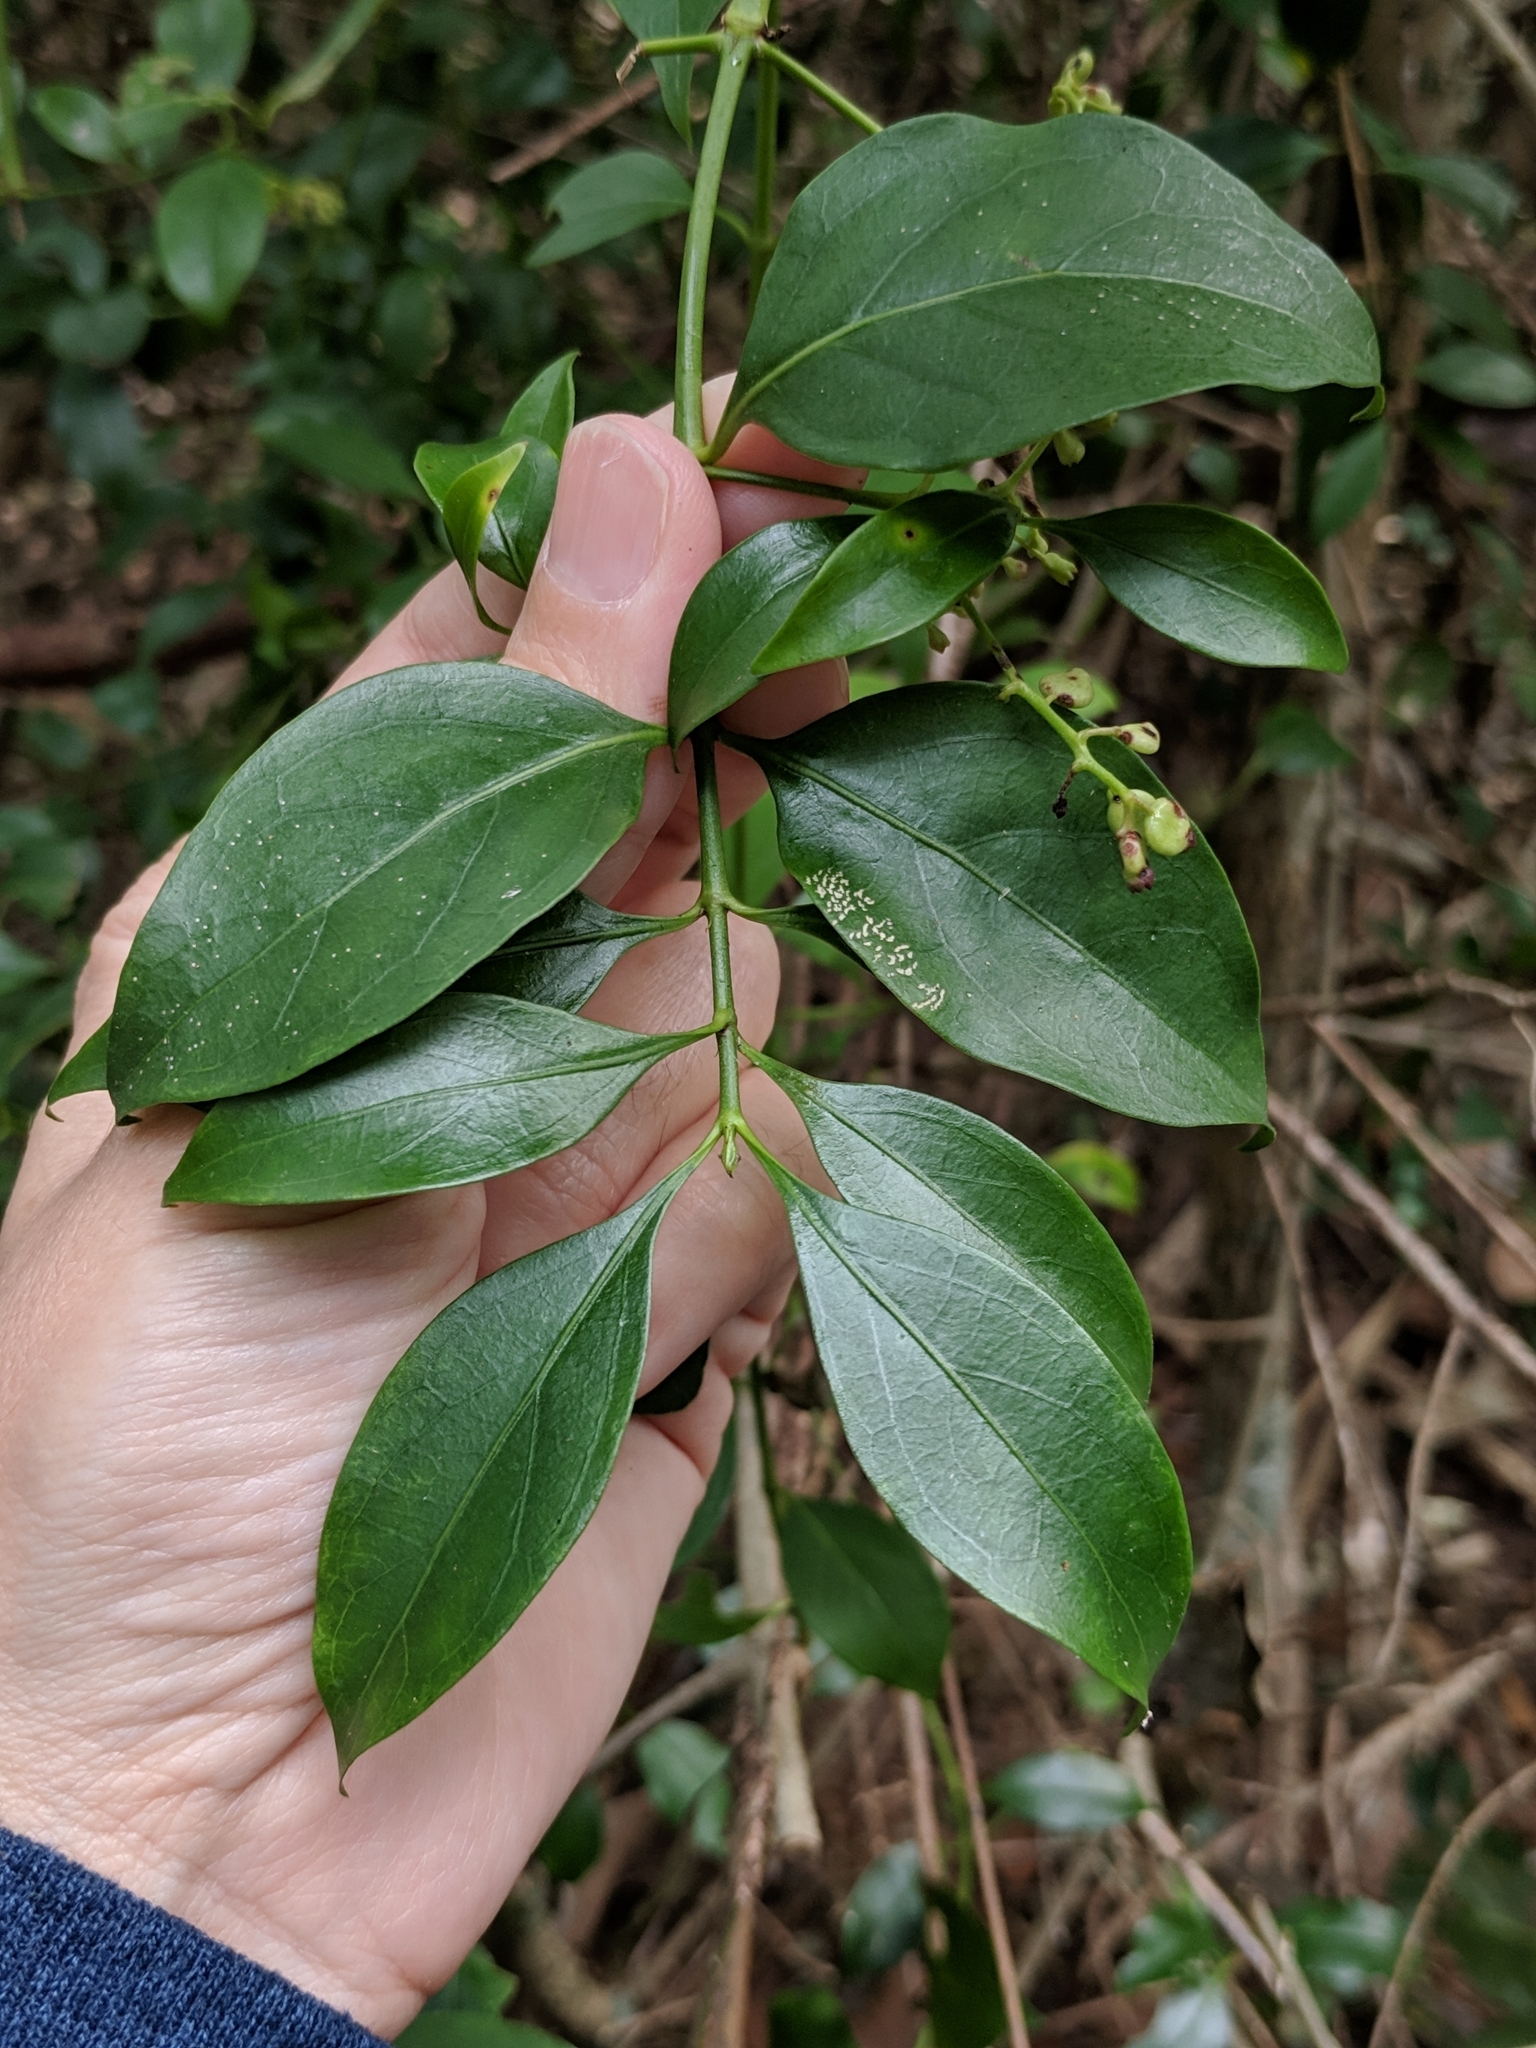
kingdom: Plantae
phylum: Tracheophyta
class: Magnoliopsida
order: Gentianales
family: Rubiaceae
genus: Chiococca
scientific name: Chiococca alba
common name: Snowberry
